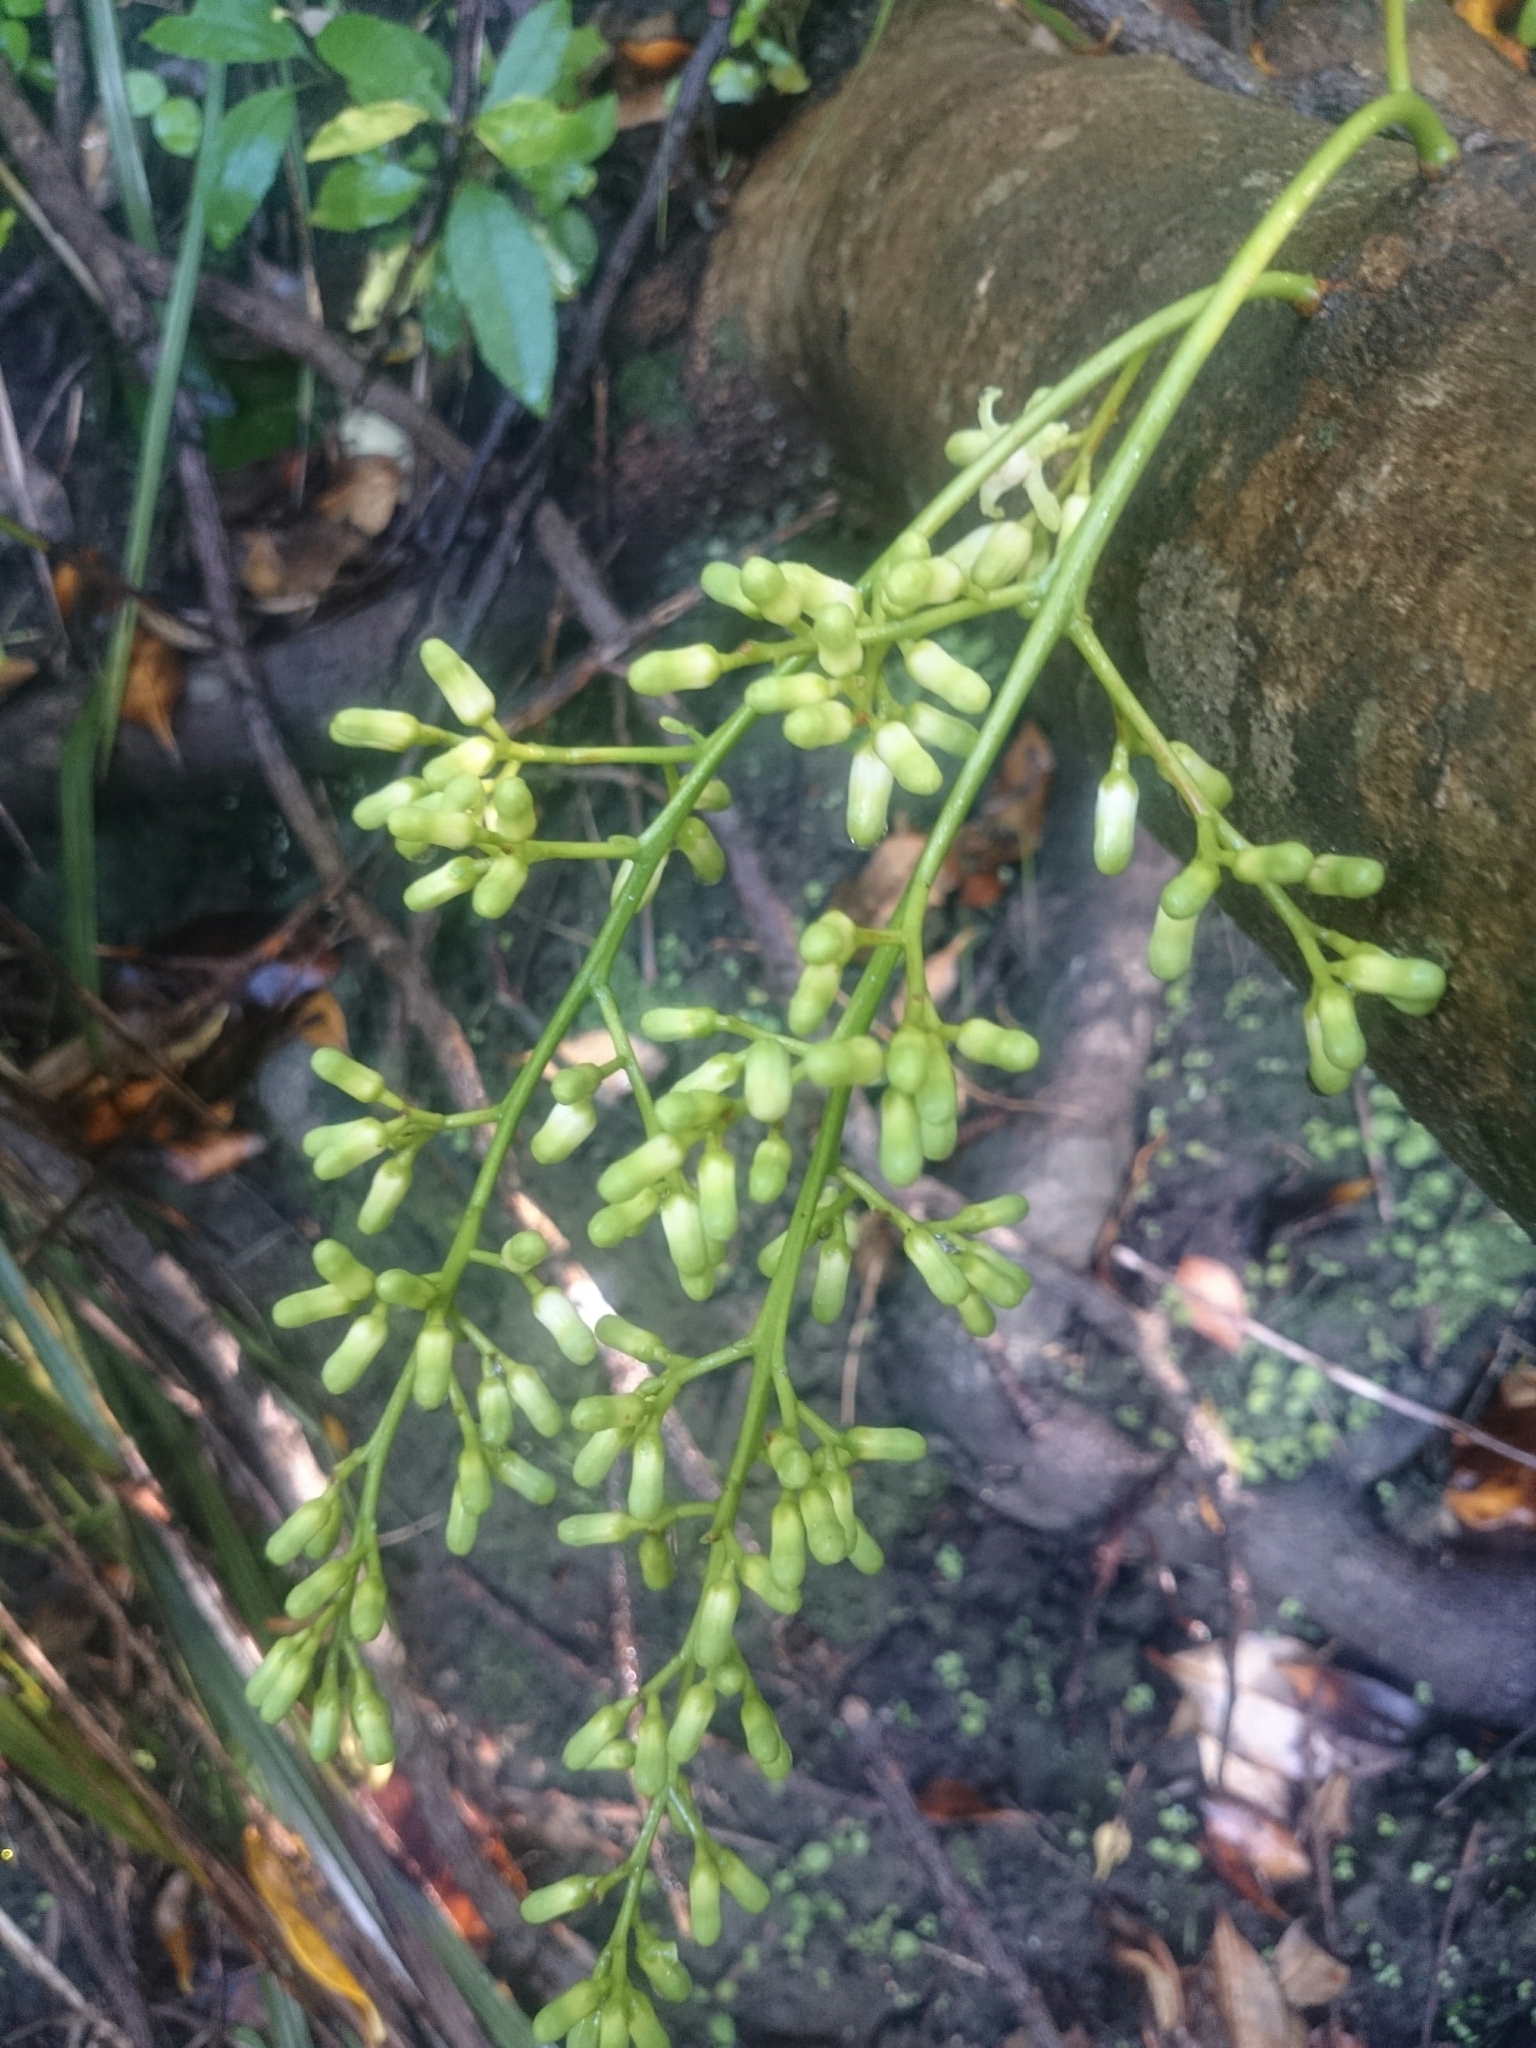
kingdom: Plantae
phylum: Tracheophyta
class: Magnoliopsida
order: Sapindales
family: Meliaceae
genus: Didymocheton
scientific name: Didymocheton spectabilis
